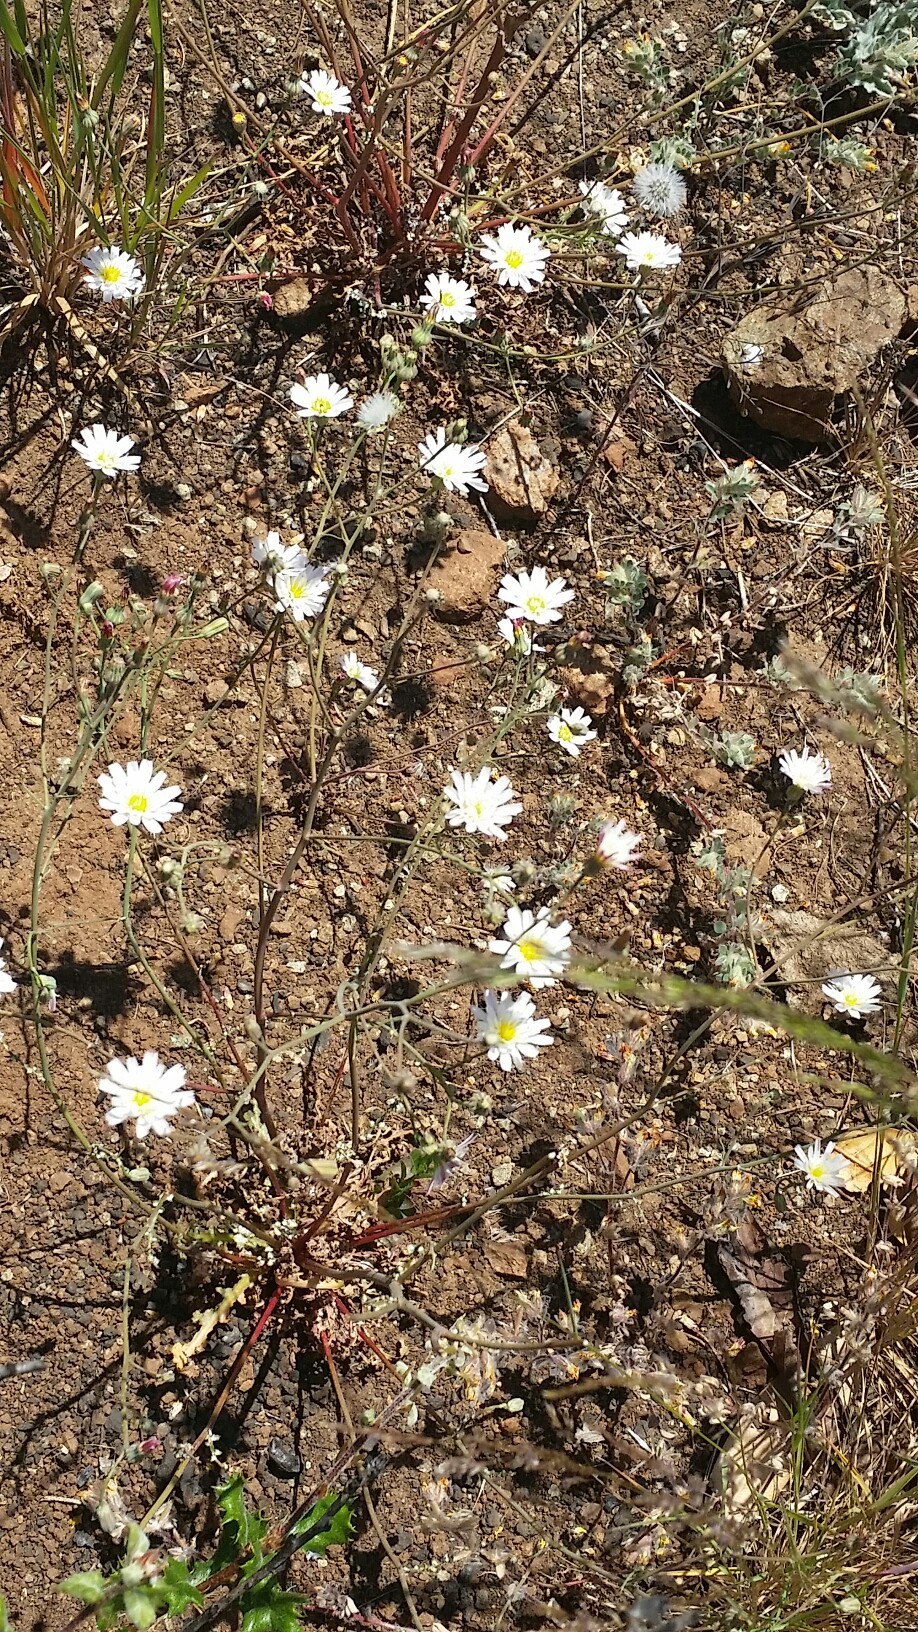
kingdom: Plantae
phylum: Tracheophyta
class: Magnoliopsida
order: Asterales
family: Asteraceae
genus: Malacothrix
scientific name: Malacothrix floccifera
